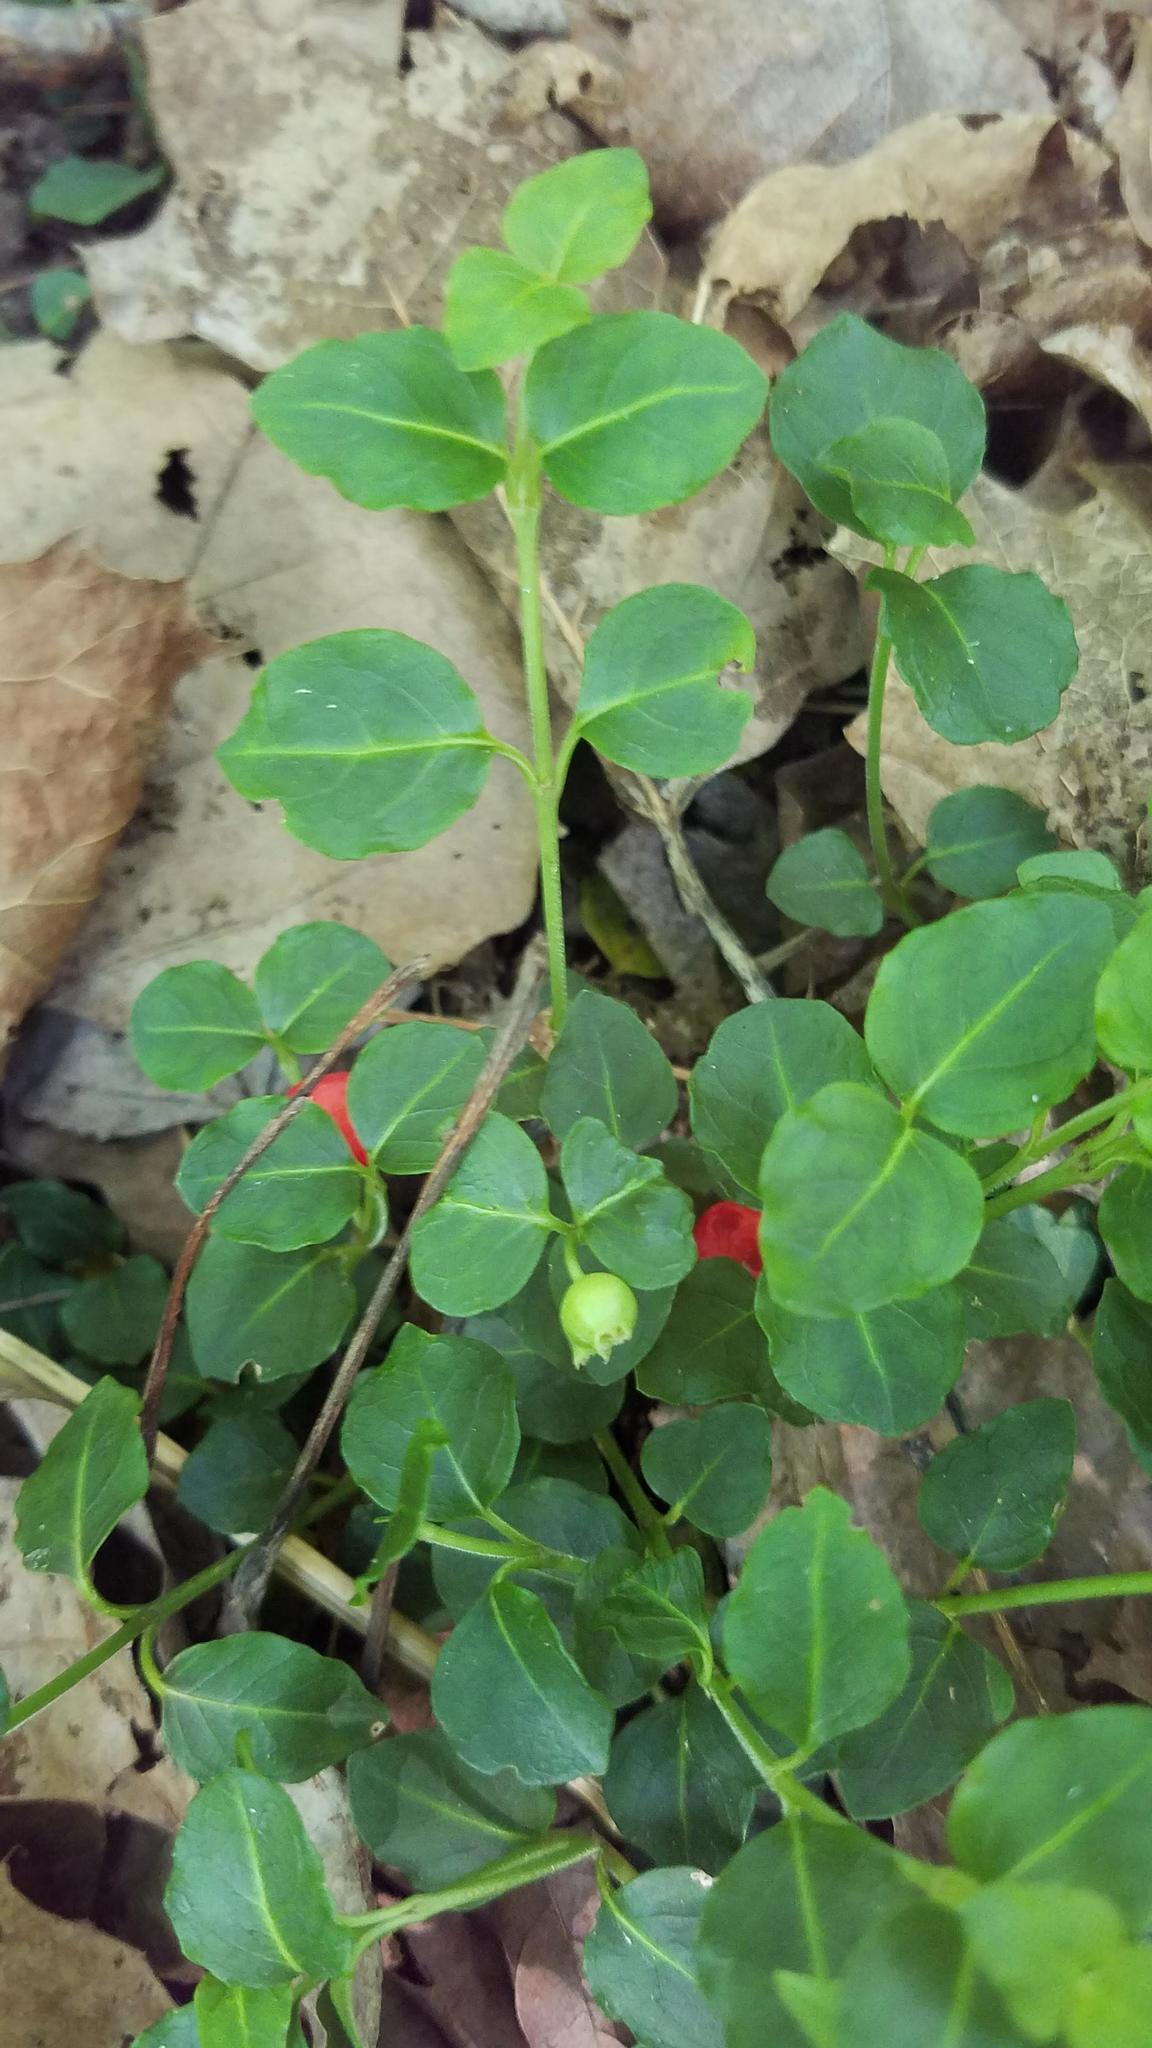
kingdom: Plantae
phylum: Tracheophyta
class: Magnoliopsida
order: Gentianales
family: Rubiaceae
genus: Mitchella
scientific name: Mitchella repens
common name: Partridge-berry
